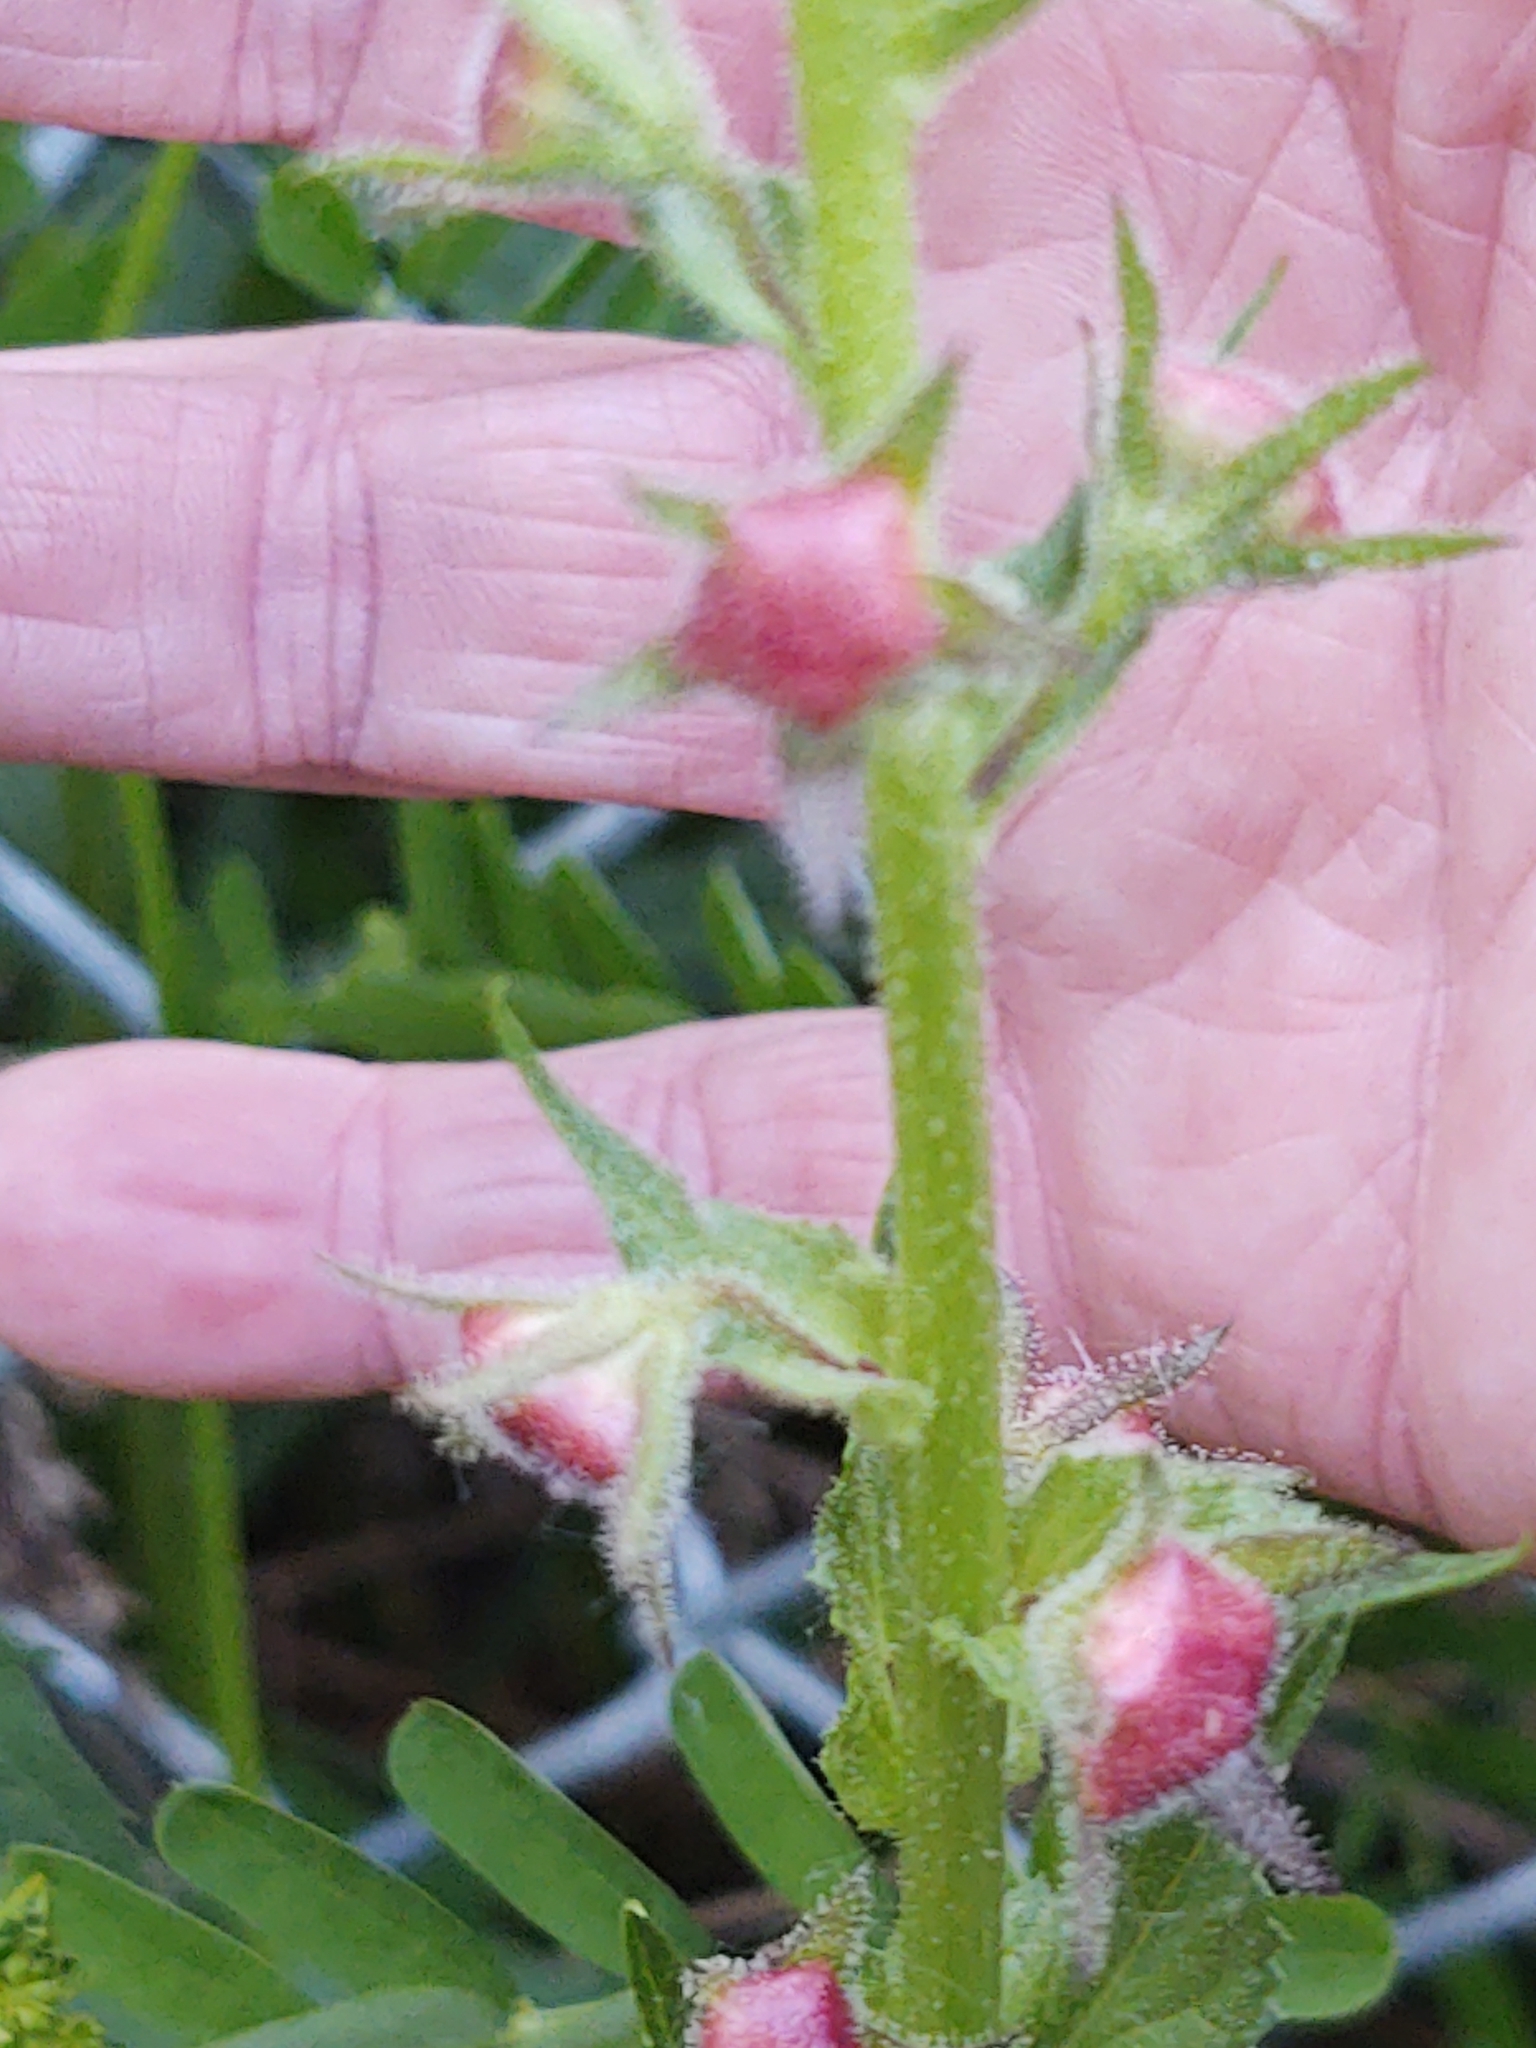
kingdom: Plantae
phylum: Tracheophyta
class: Magnoliopsida
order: Lamiales
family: Scrophulariaceae
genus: Verbascum
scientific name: Verbascum blattaria
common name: Moth mullein
